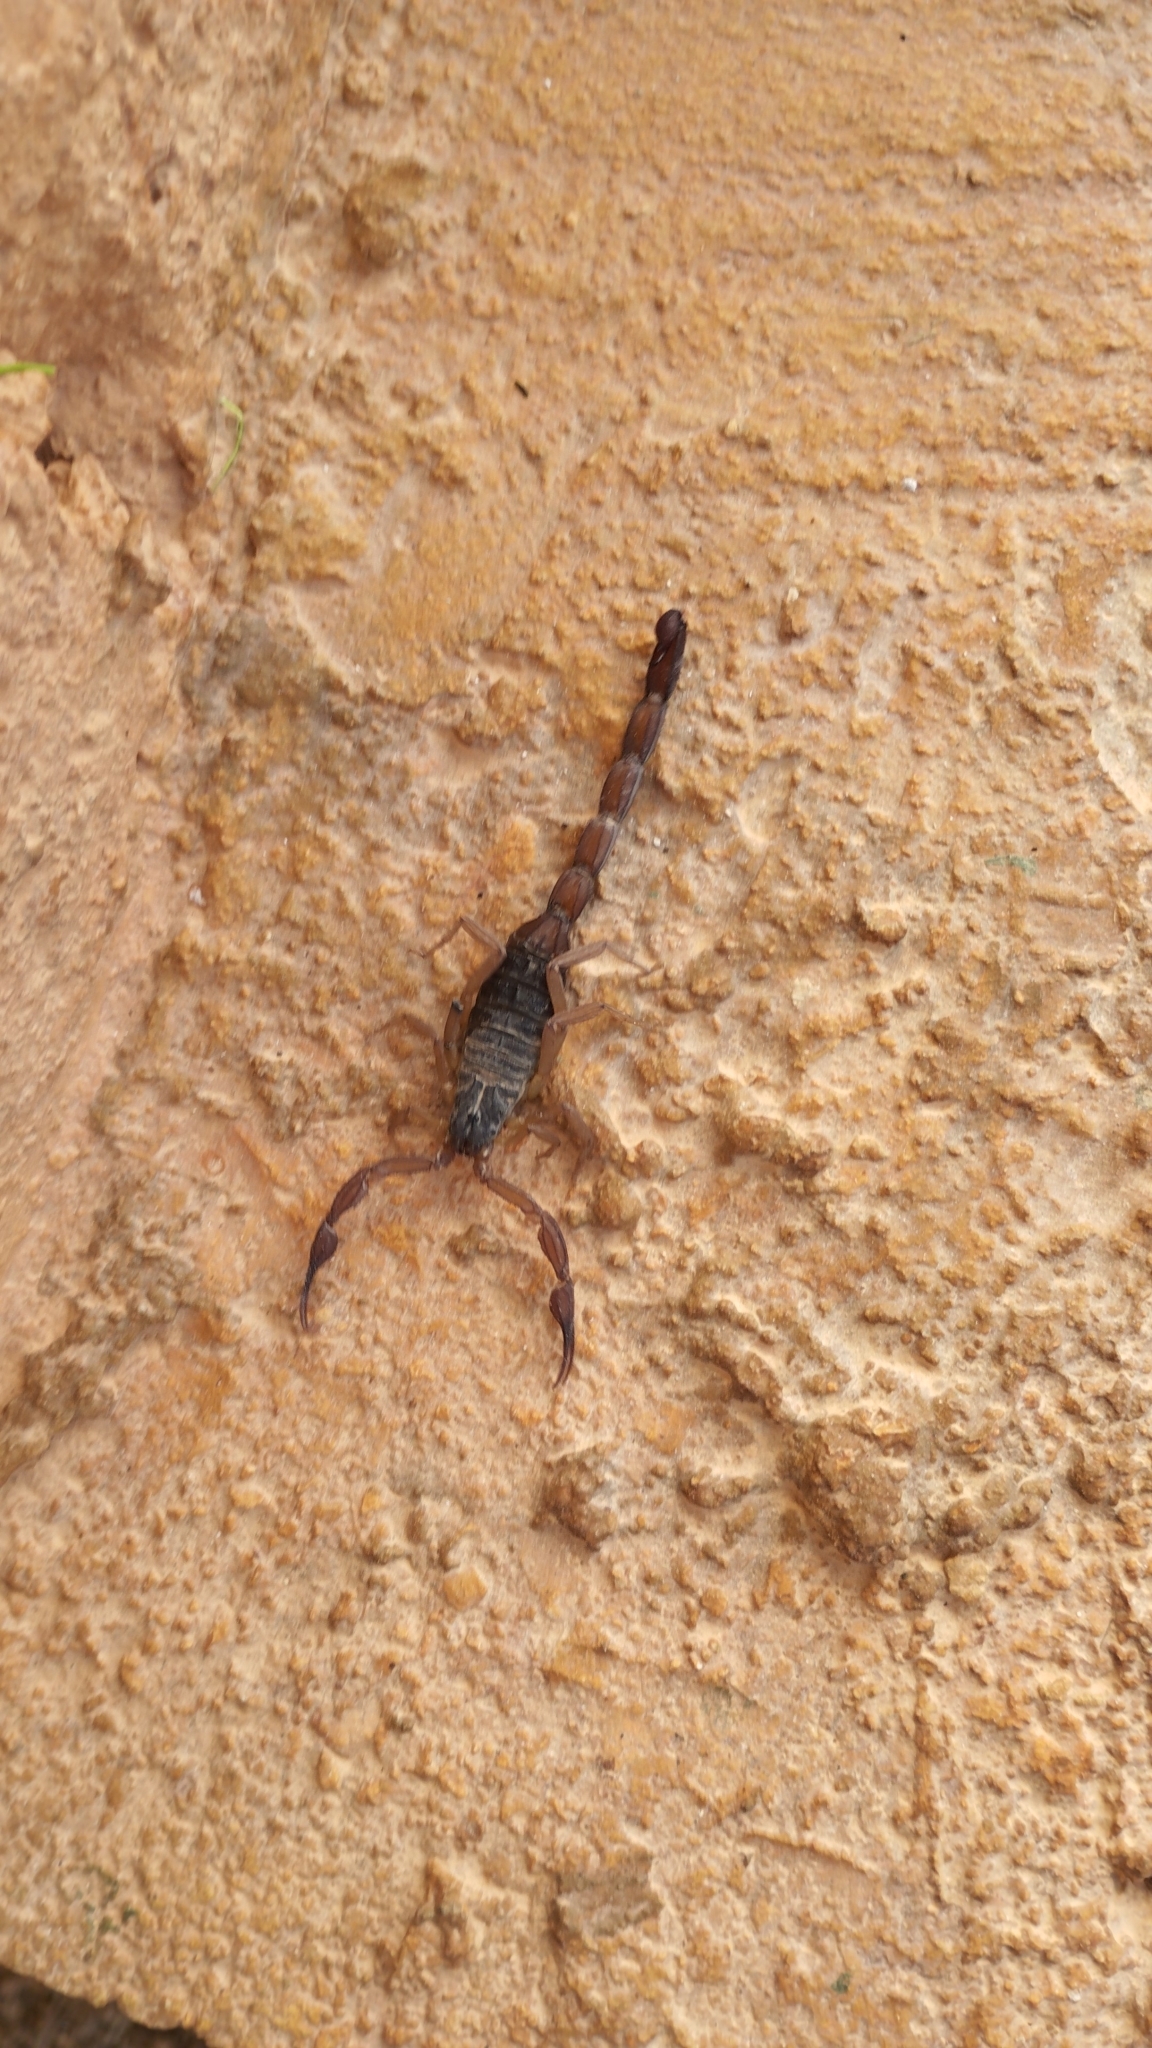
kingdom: Animalia
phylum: Arthropoda
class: Arachnida
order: Scorpiones
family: Buthidae
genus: Centruroides
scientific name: Centruroides ochraceus
